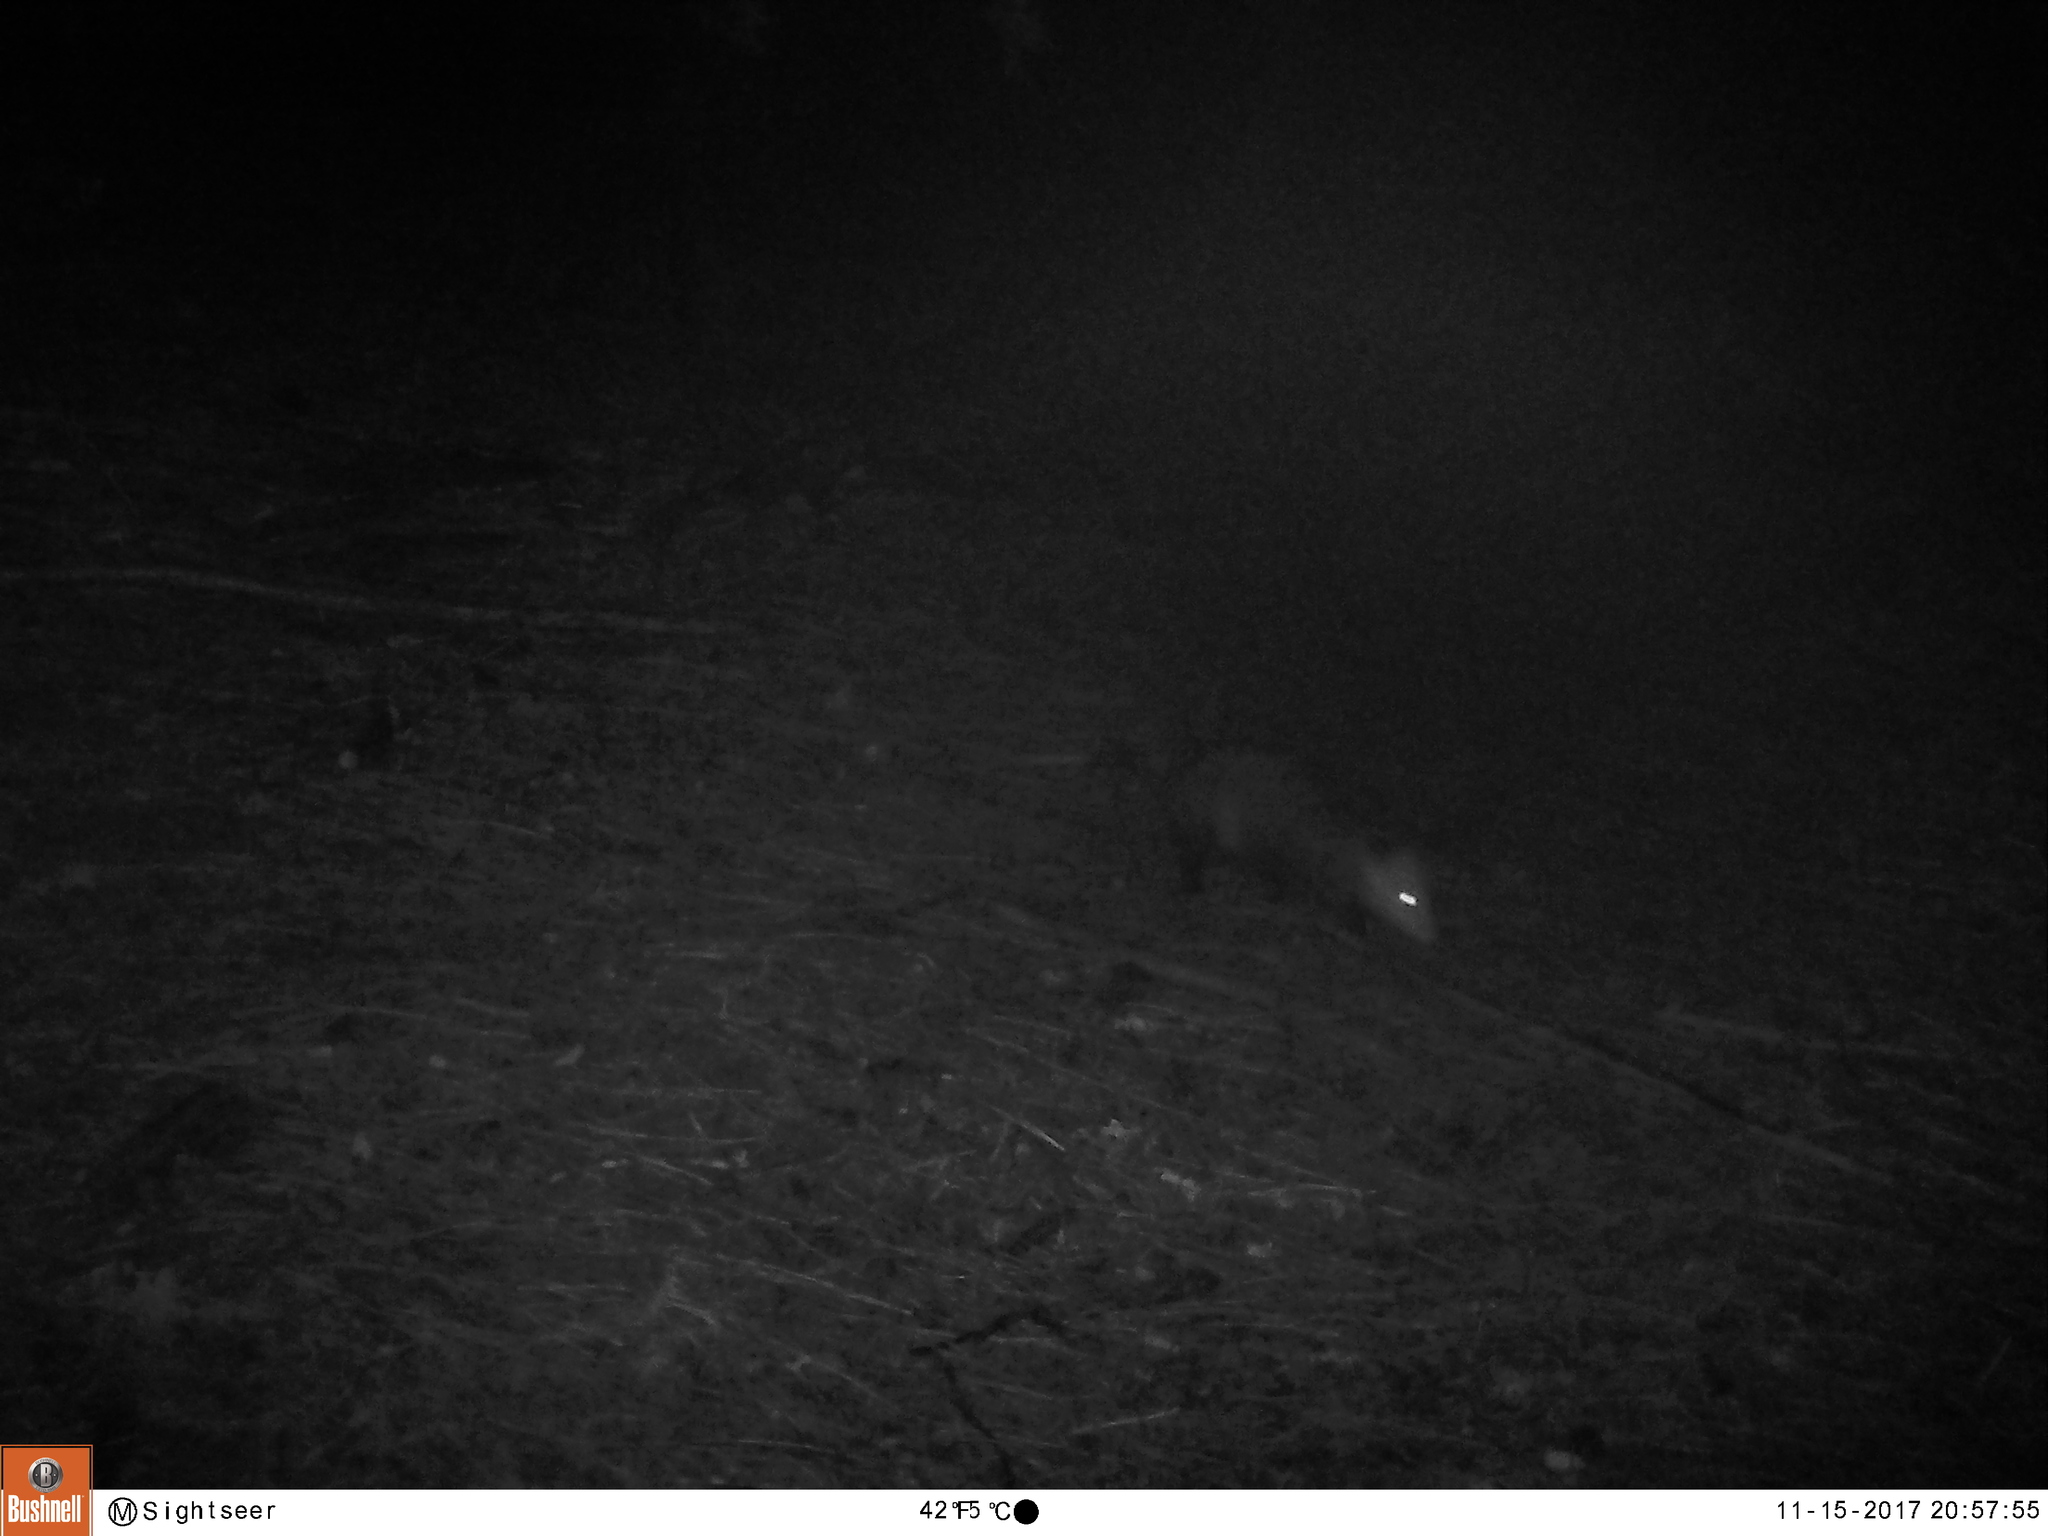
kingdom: Animalia
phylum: Chordata
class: Mammalia
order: Didelphimorphia
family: Didelphidae
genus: Didelphis
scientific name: Didelphis virginiana
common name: Virginia opossum
